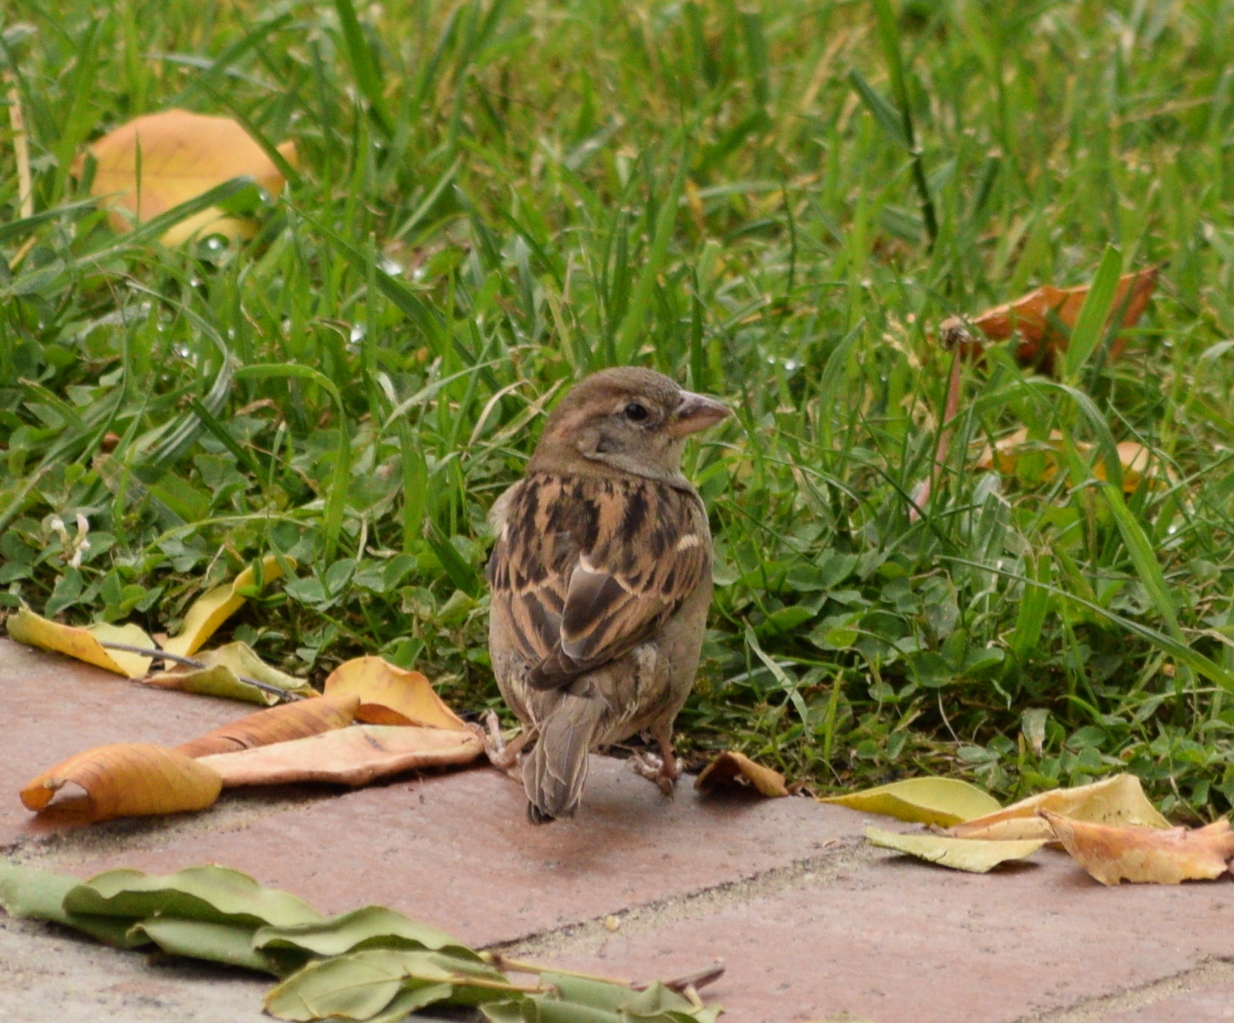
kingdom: Animalia
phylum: Chordata
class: Aves
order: Passeriformes
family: Passeridae
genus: Passer
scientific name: Passer domesticus
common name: House sparrow
